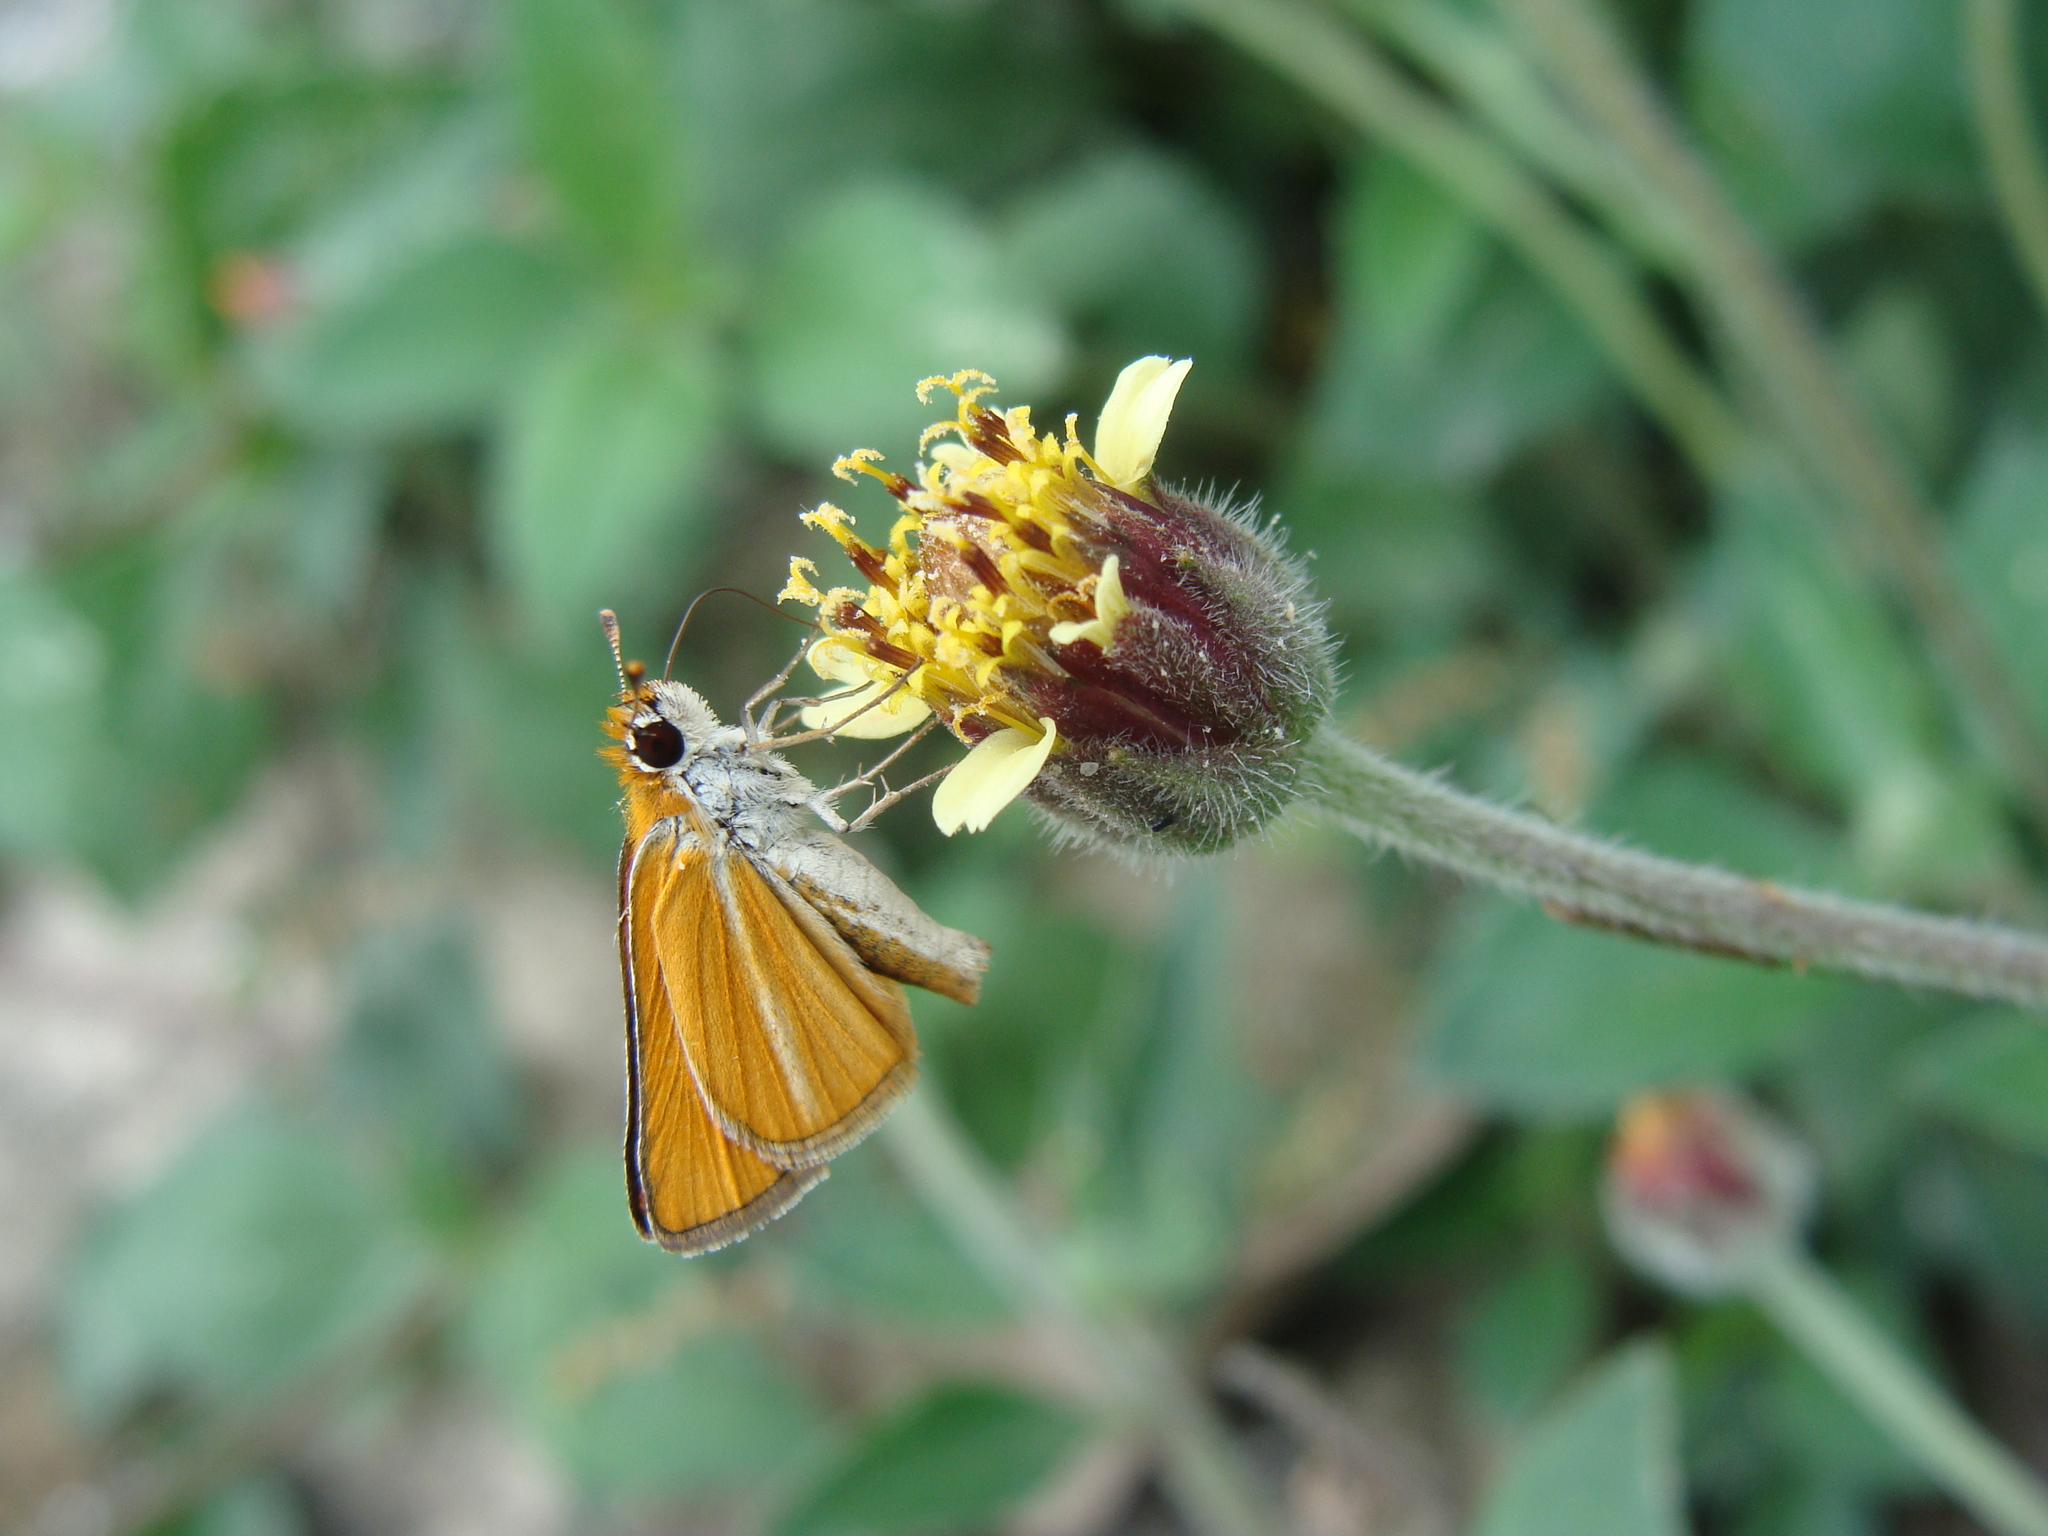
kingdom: Animalia
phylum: Arthropoda
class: Insecta
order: Lepidoptera
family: Hesperiidae
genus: Copaeodes
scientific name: Copaeodes minima
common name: Southern skipperling
